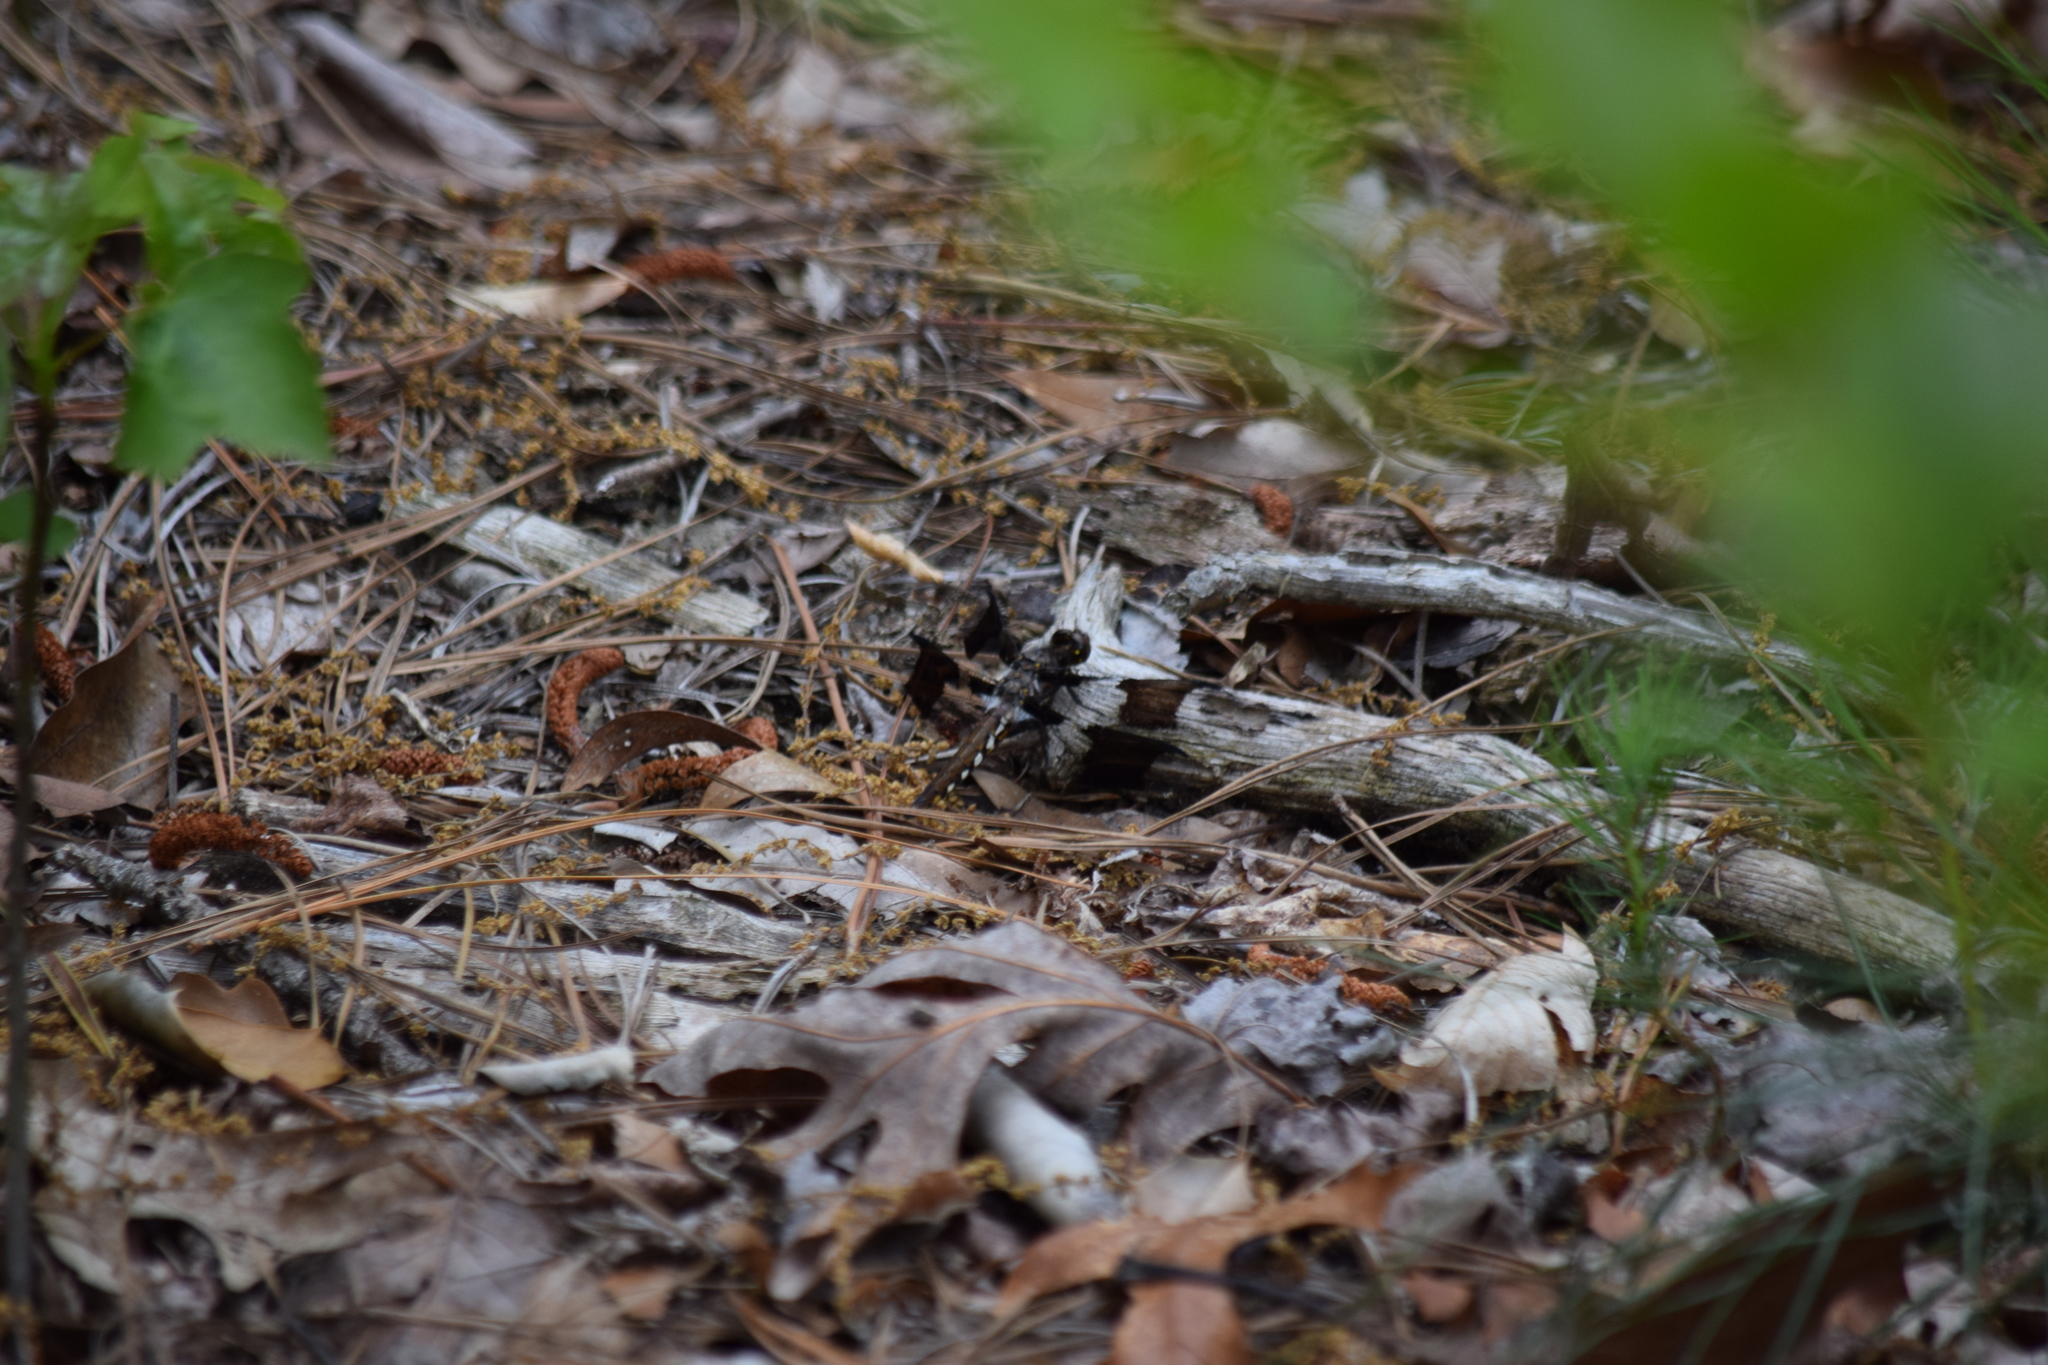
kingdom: Animalia
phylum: Arthropoda
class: Insecta
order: Odonata
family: Libellulidae
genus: Plathemis
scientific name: Plathemis lydia
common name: Common whitetail
